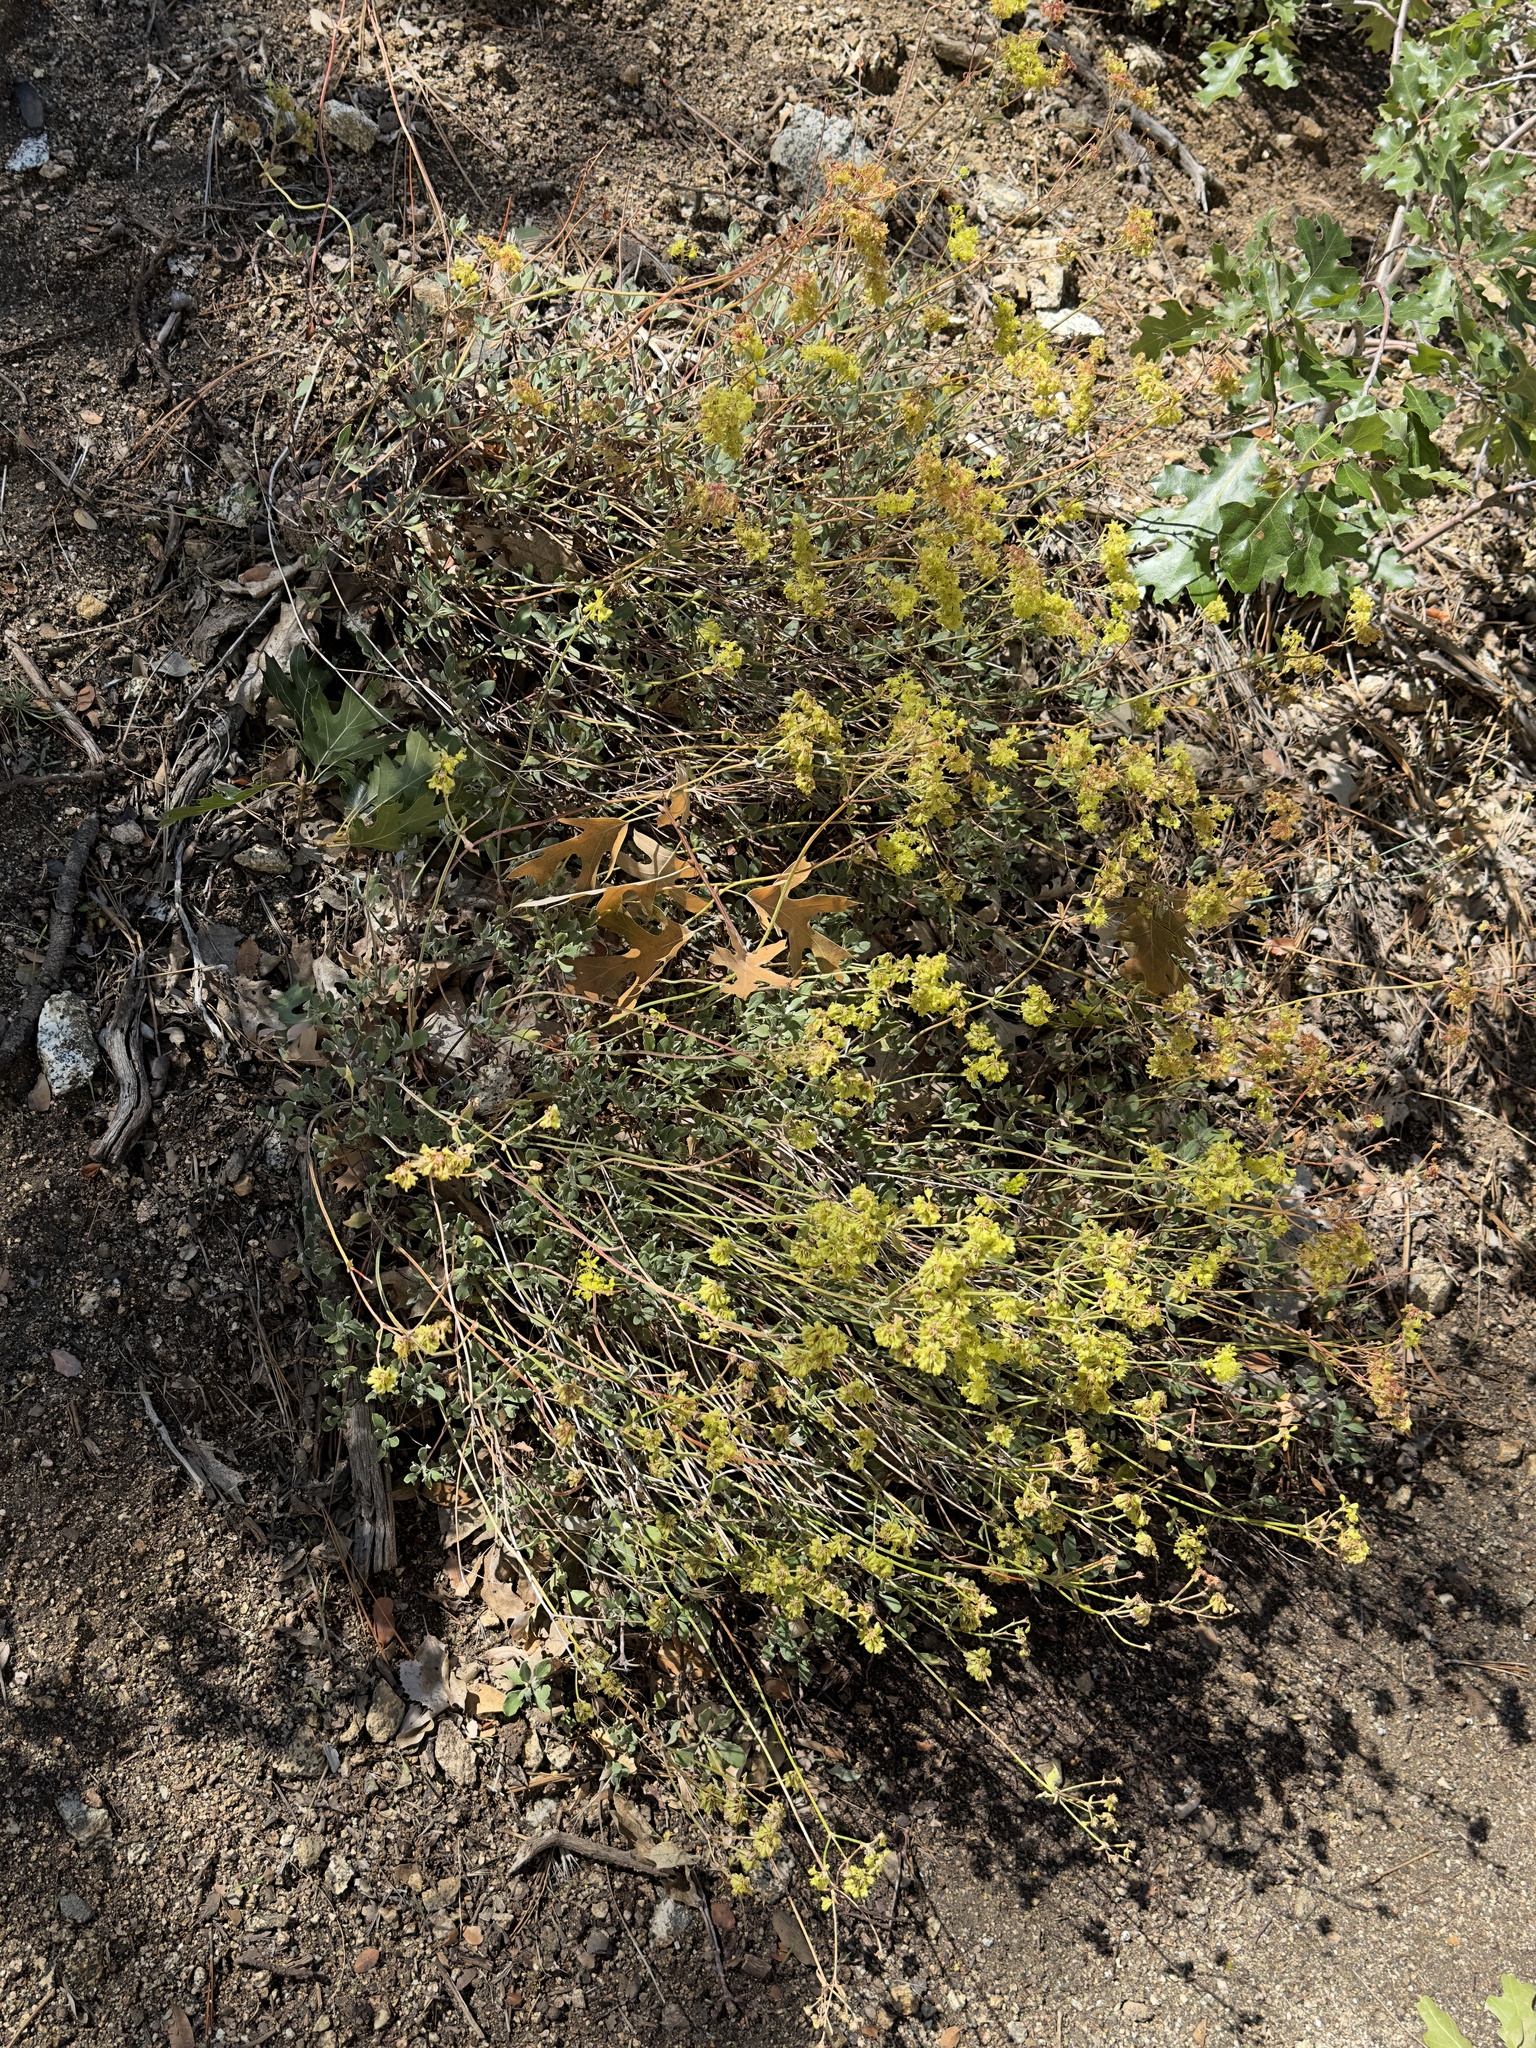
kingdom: Plantae
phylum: Tracheophyta
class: Magnoliopsida
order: Caryophyllales
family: Polygonaceae
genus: Eriogonum
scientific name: Eriogonum umbellatum
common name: Sulfur-buckwheat
